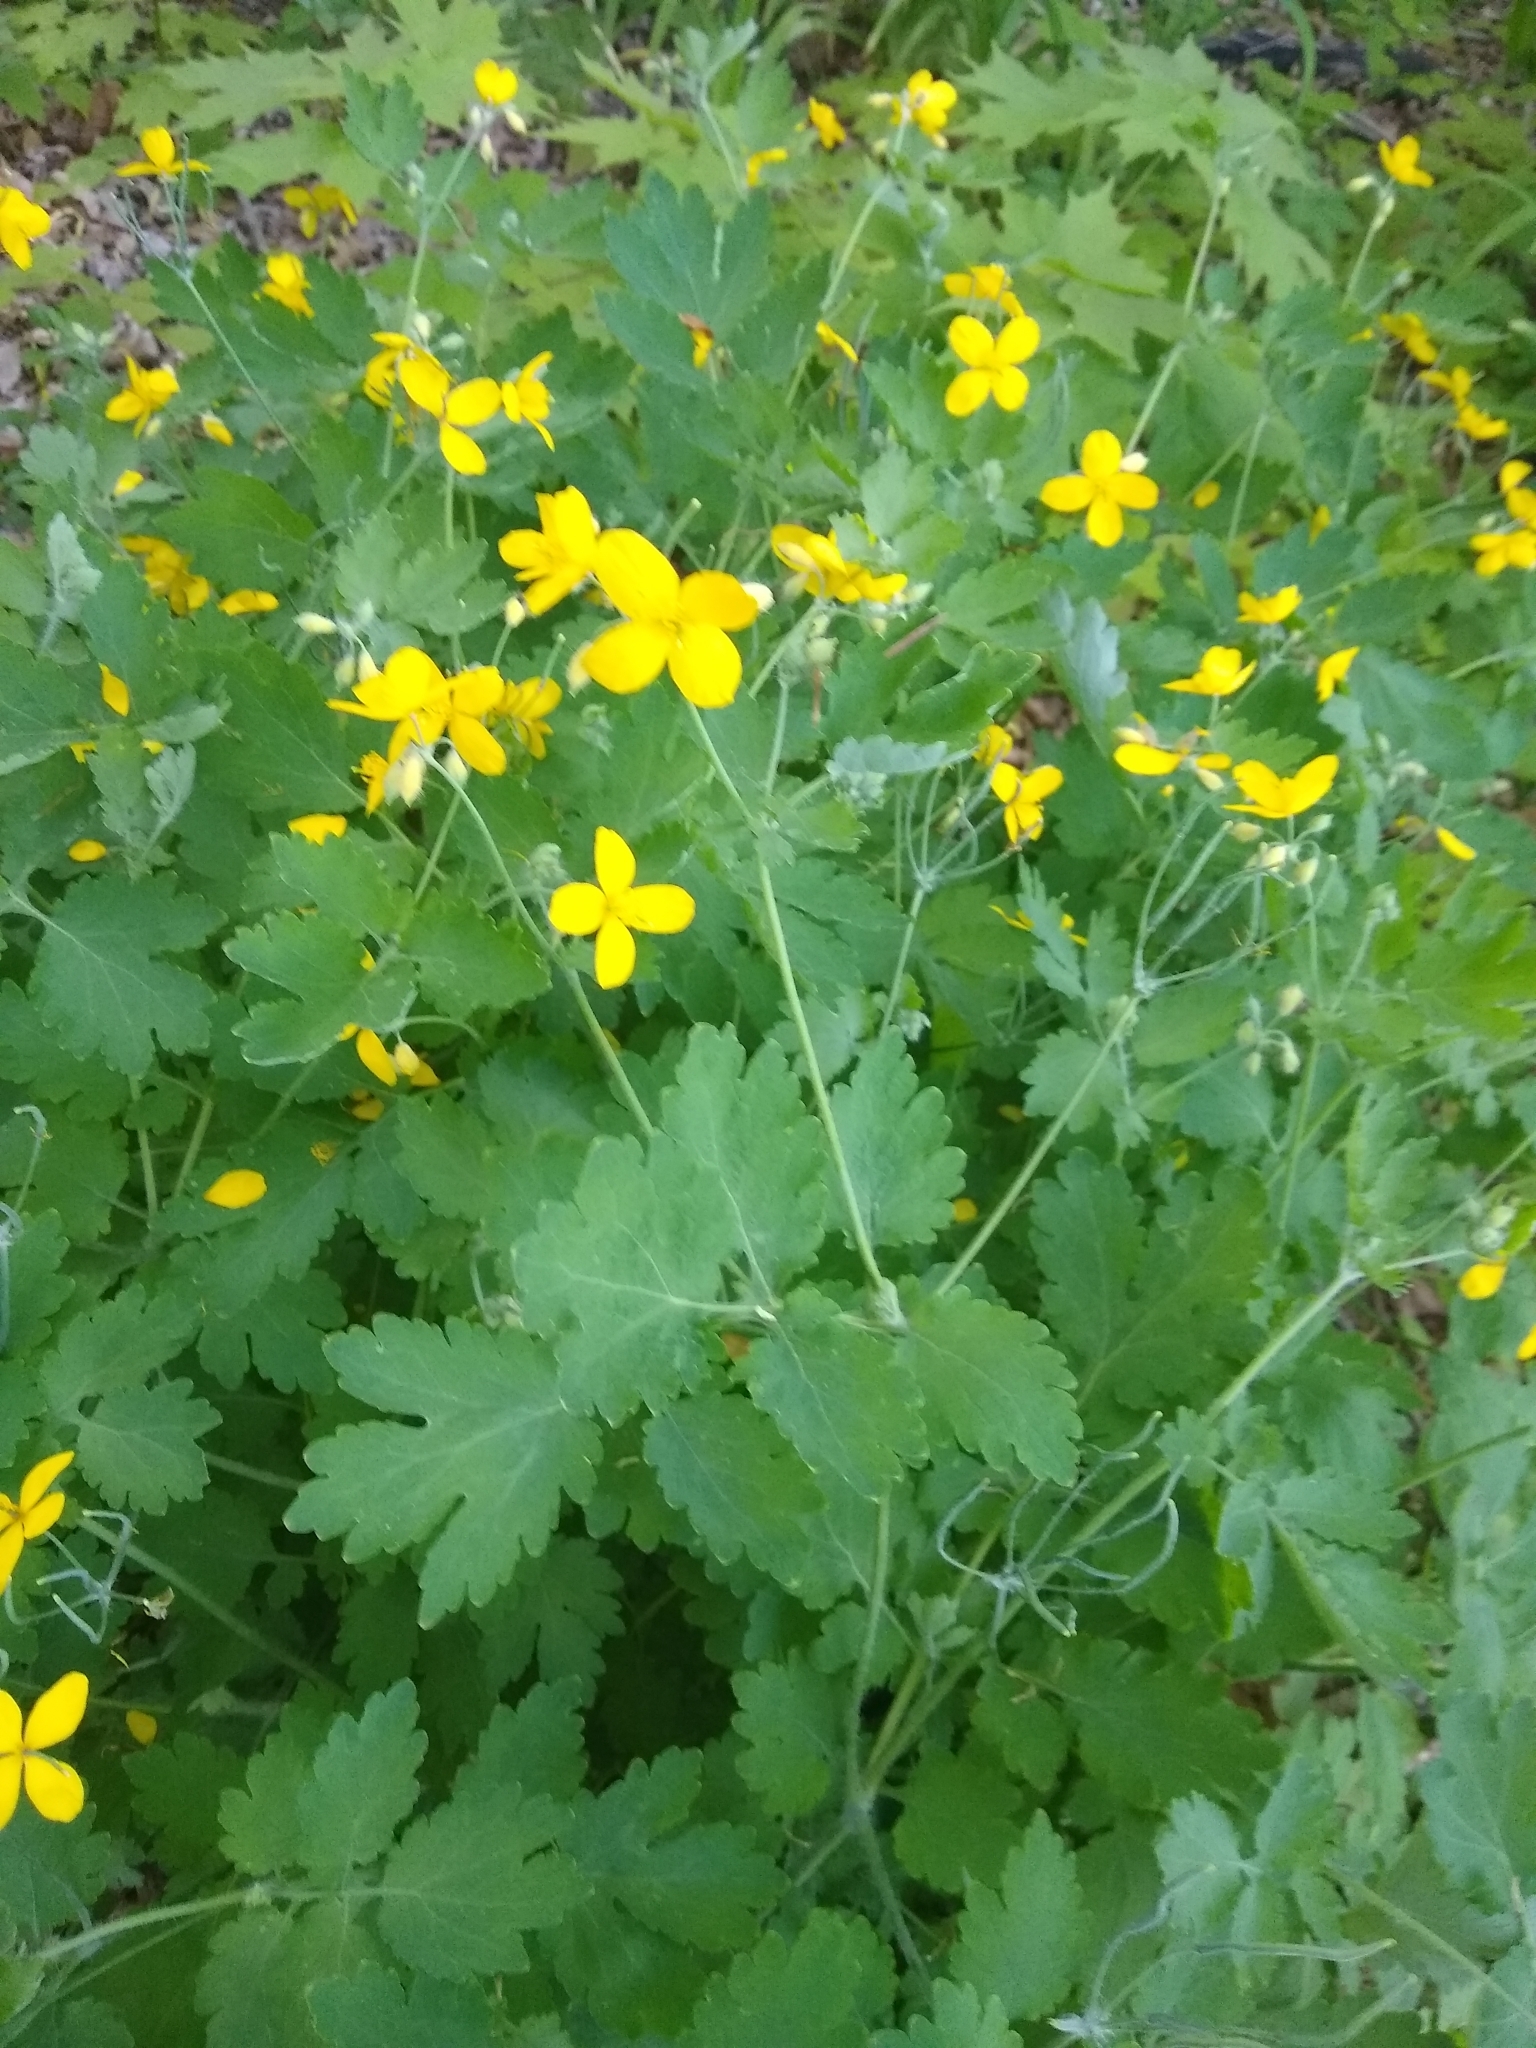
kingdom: Plantae
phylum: Tracheophyta
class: Magnoliopsida
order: Ranunculales
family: Papaveraceae
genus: Chelidonium
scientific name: Chelidonium majus
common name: Greater celandine
